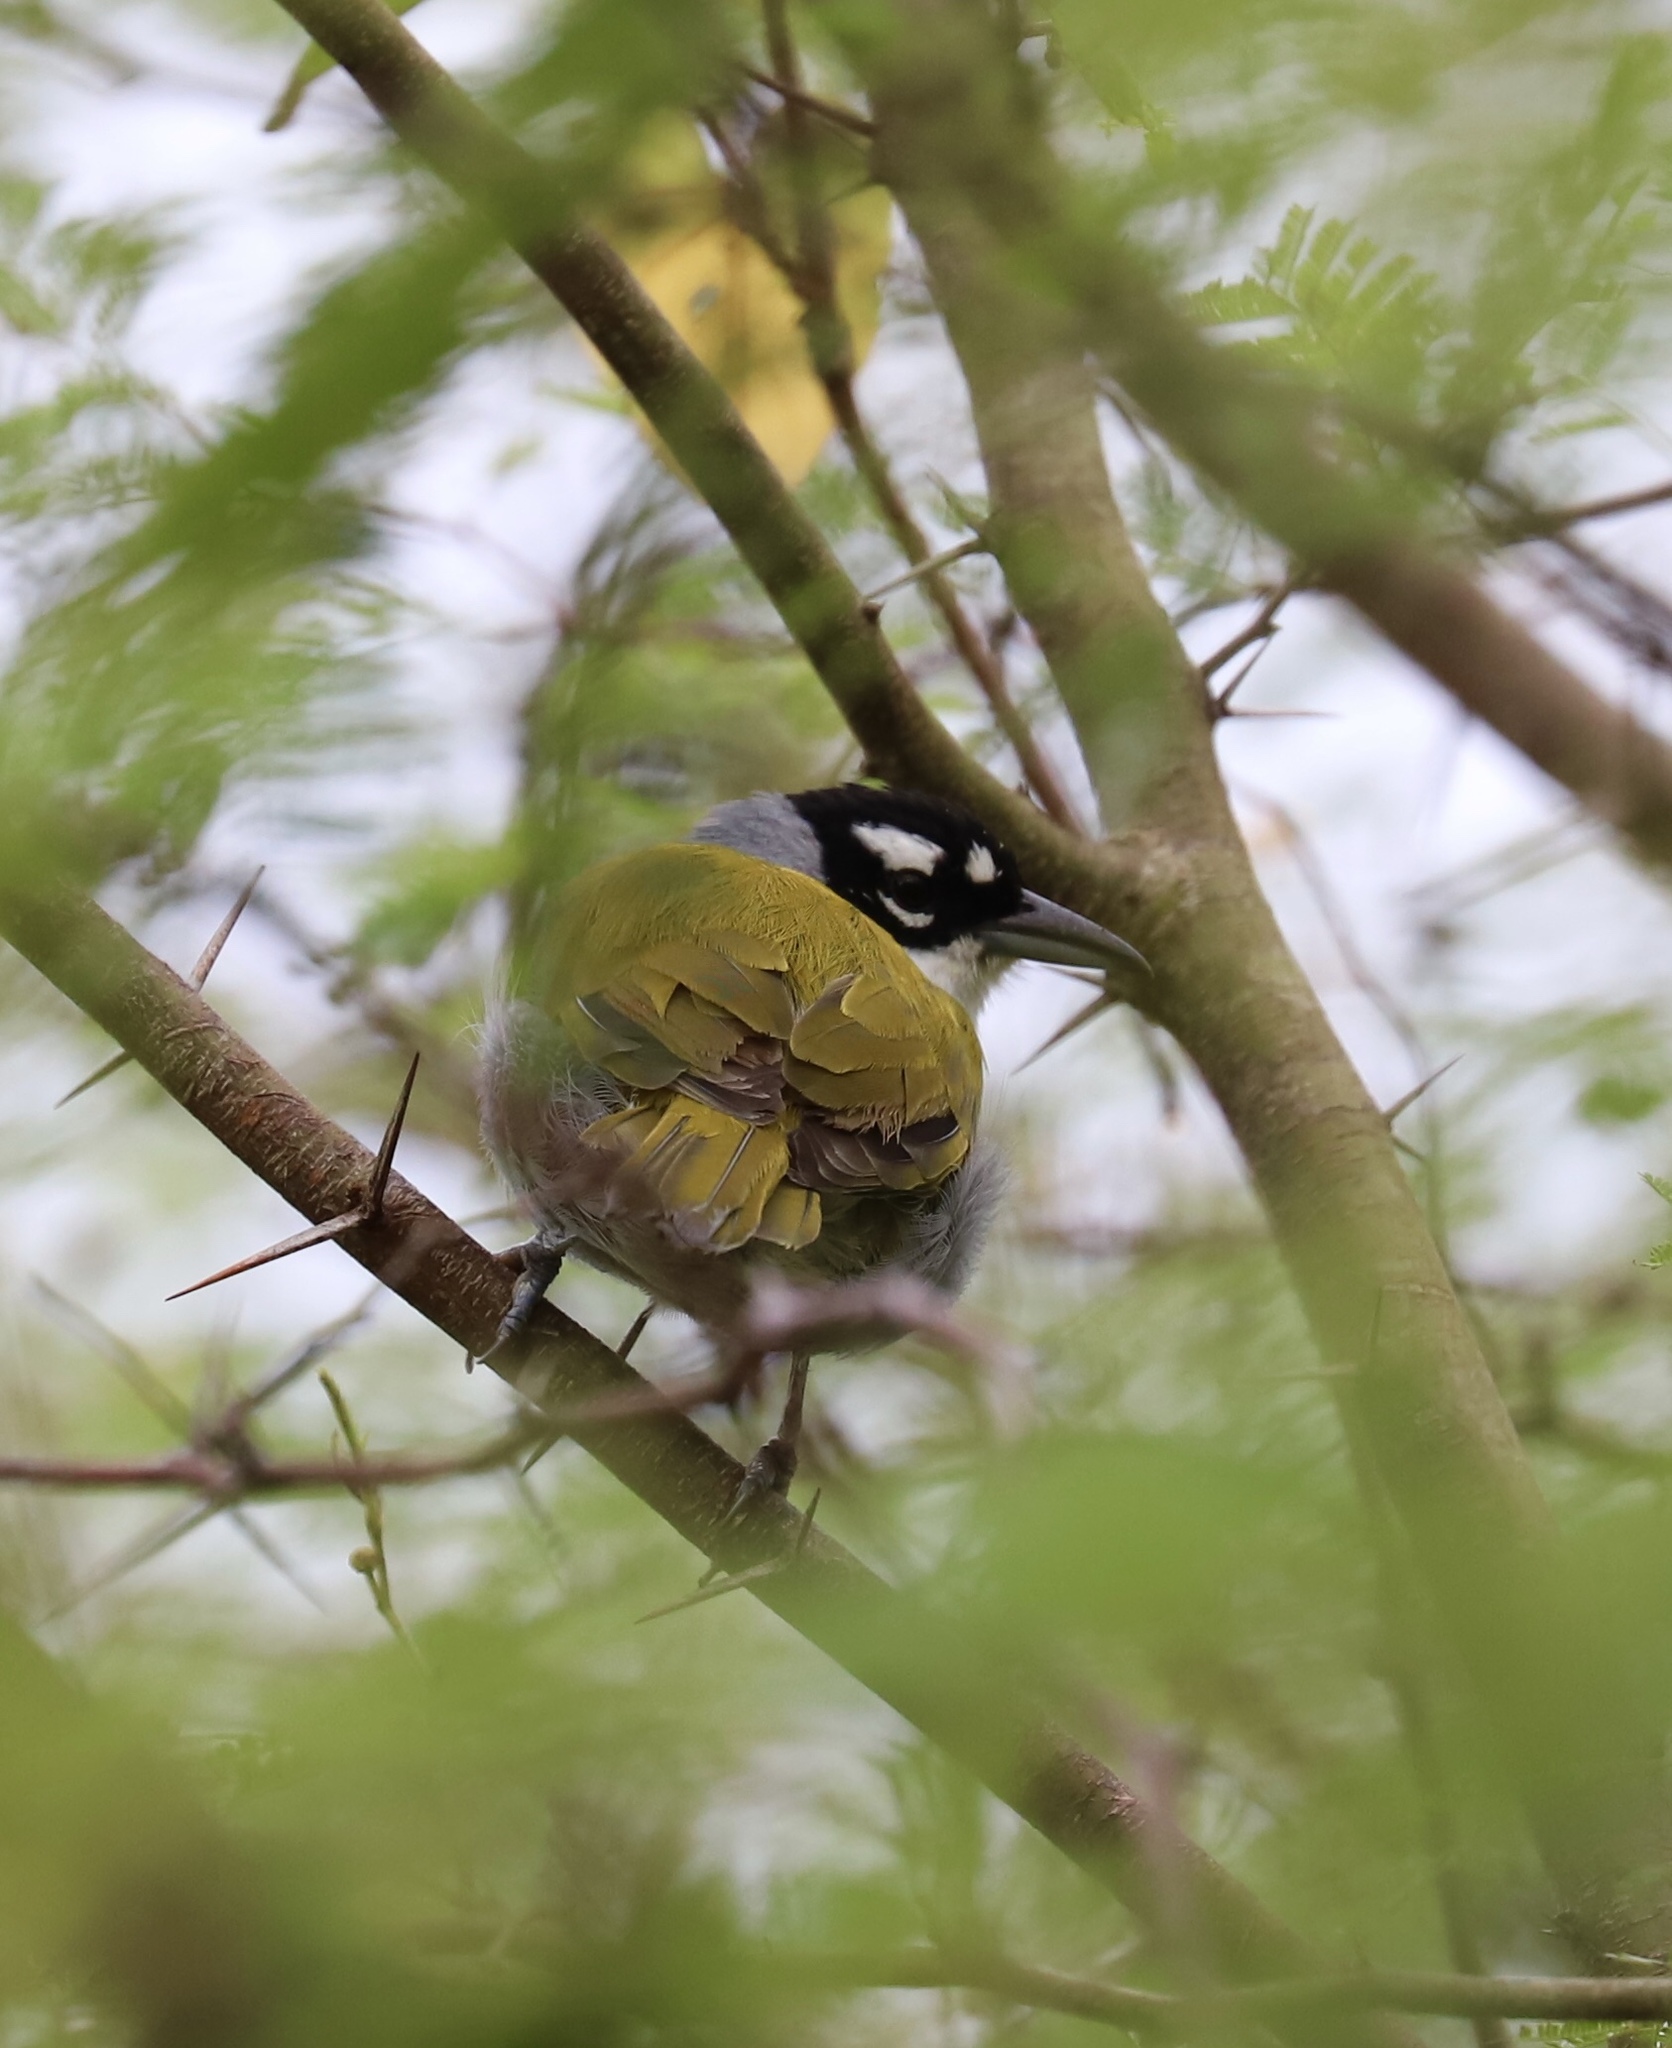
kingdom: Animalia
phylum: Chordata
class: Aves
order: Passeriformes
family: Phaenicophilidae
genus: Phaenicophilus
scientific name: Phaenicophilus palmarum
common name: Black-crowned palm-tanager
